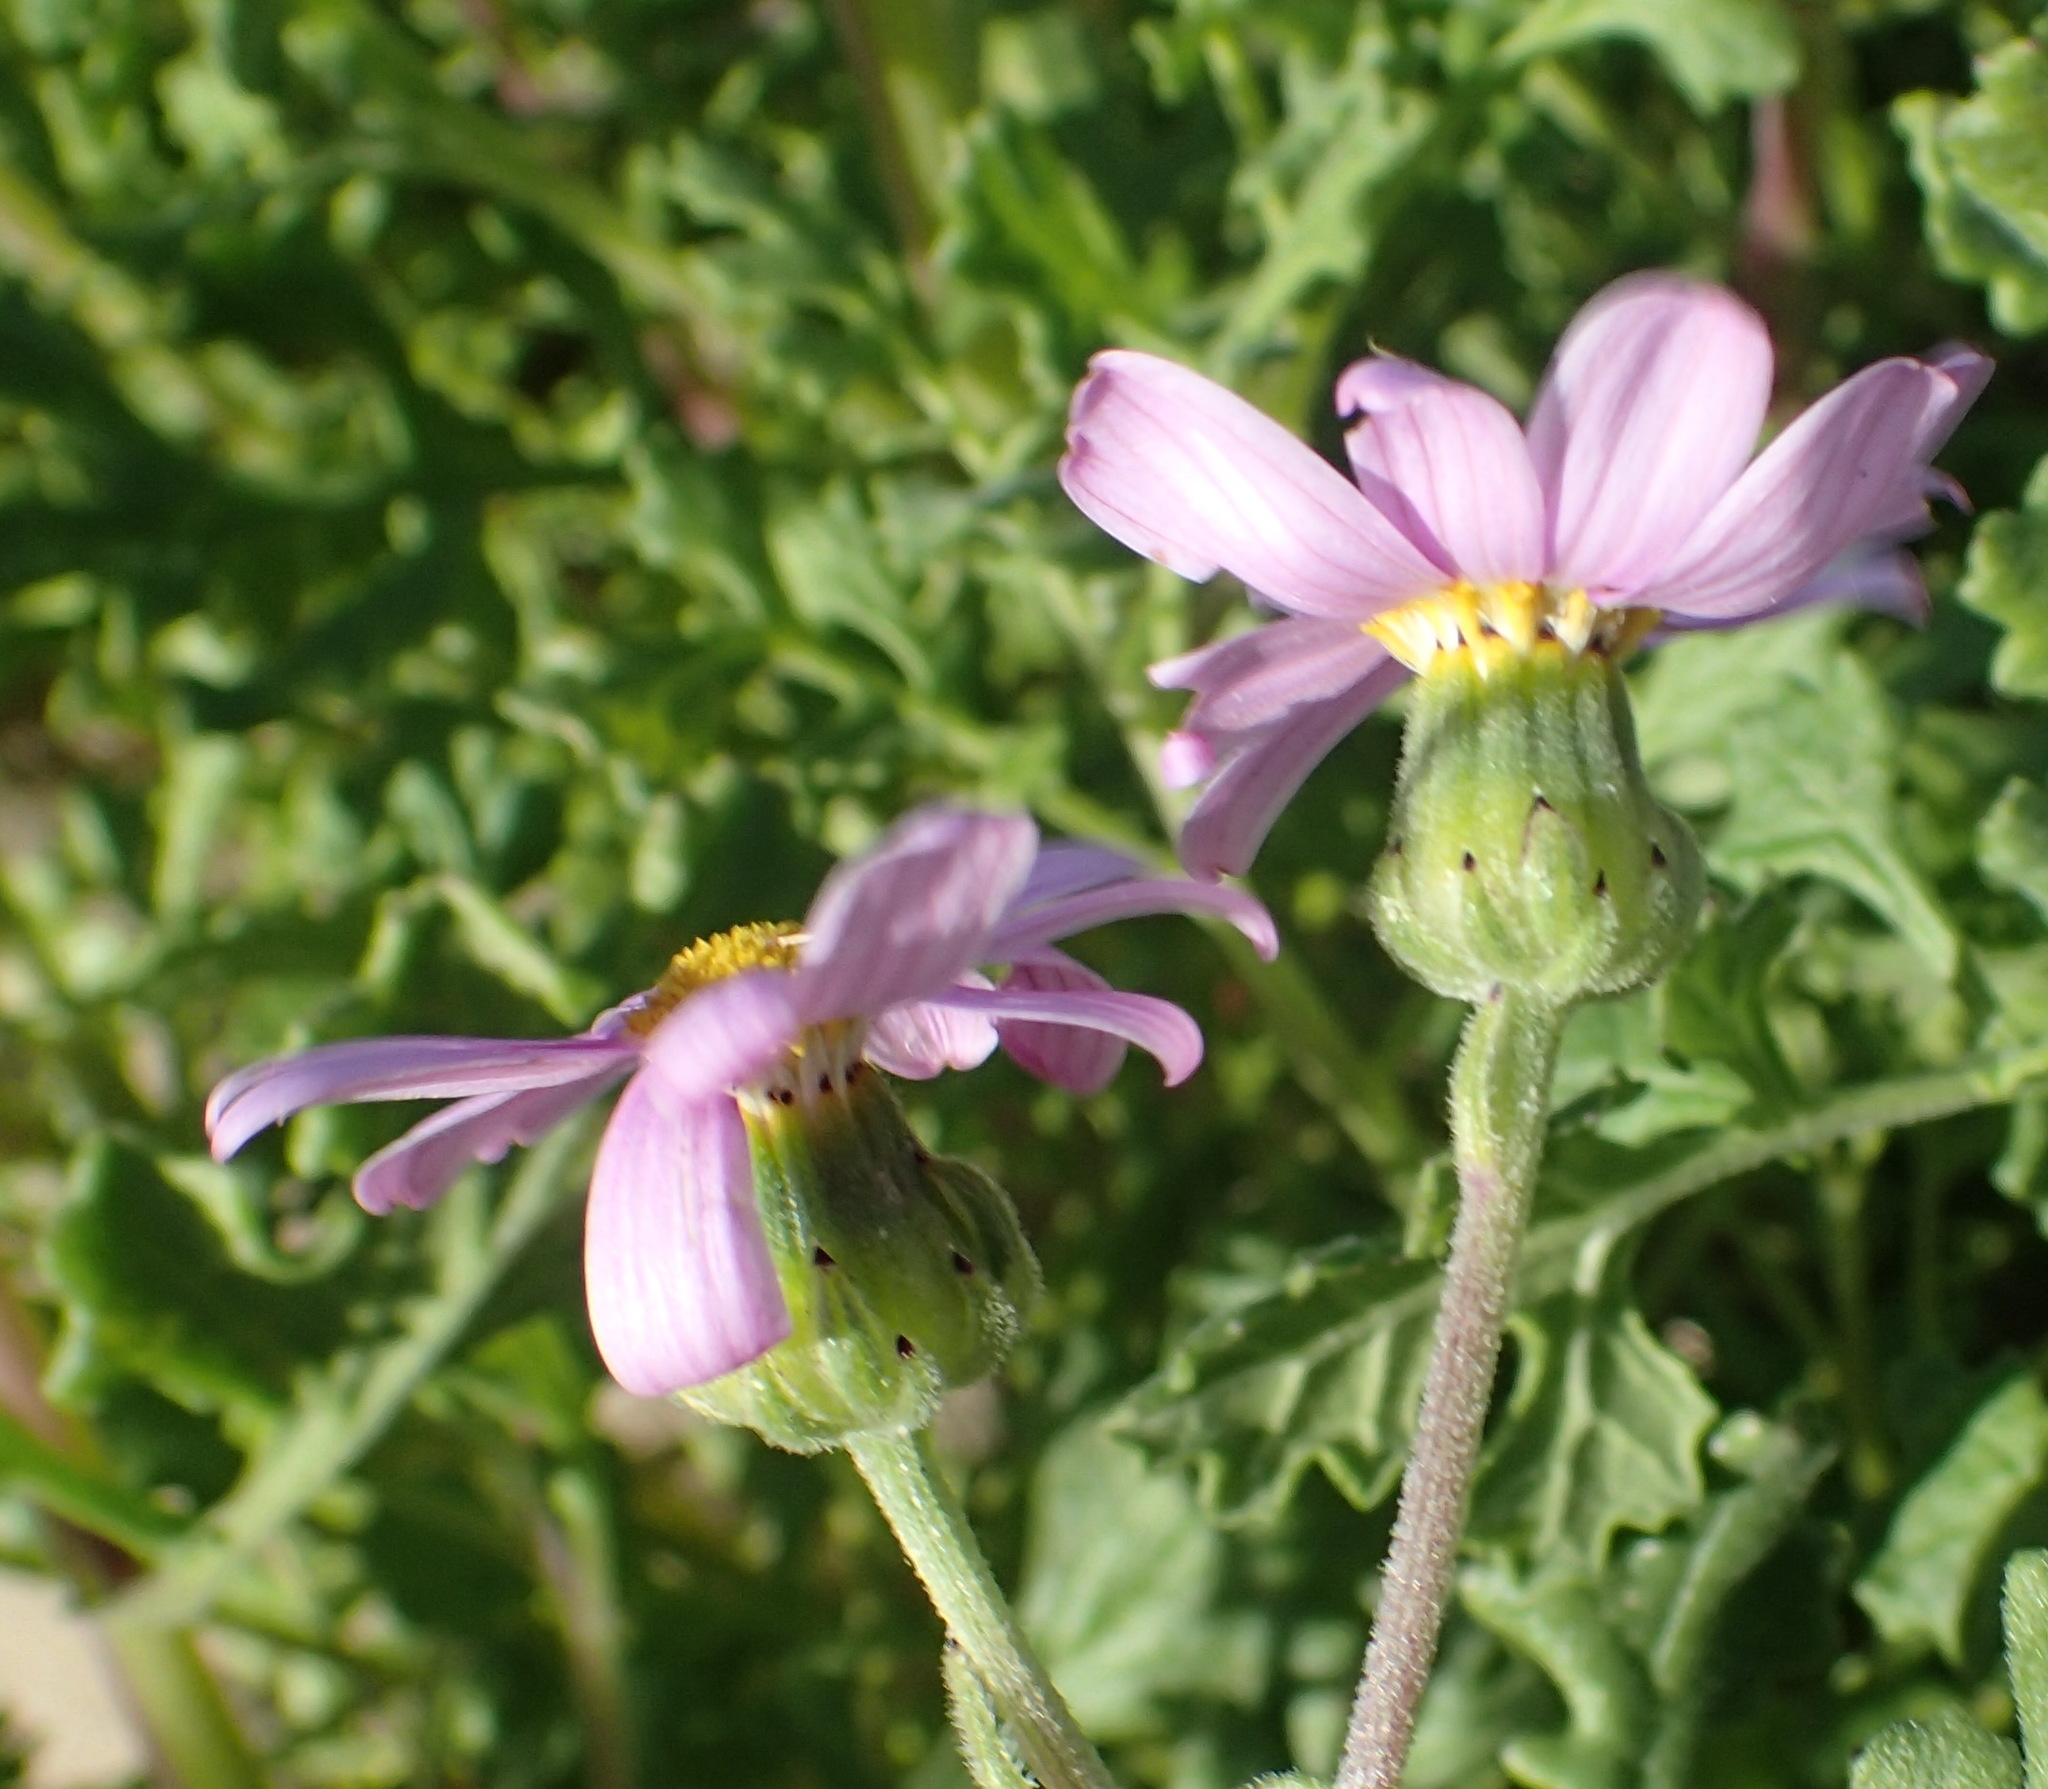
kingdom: Plantae
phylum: Tracheophyta
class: Magnoliopsida
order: Asterales
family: Asteraceae
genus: Senecio
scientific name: Senecio elegans
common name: Purple groundsel
